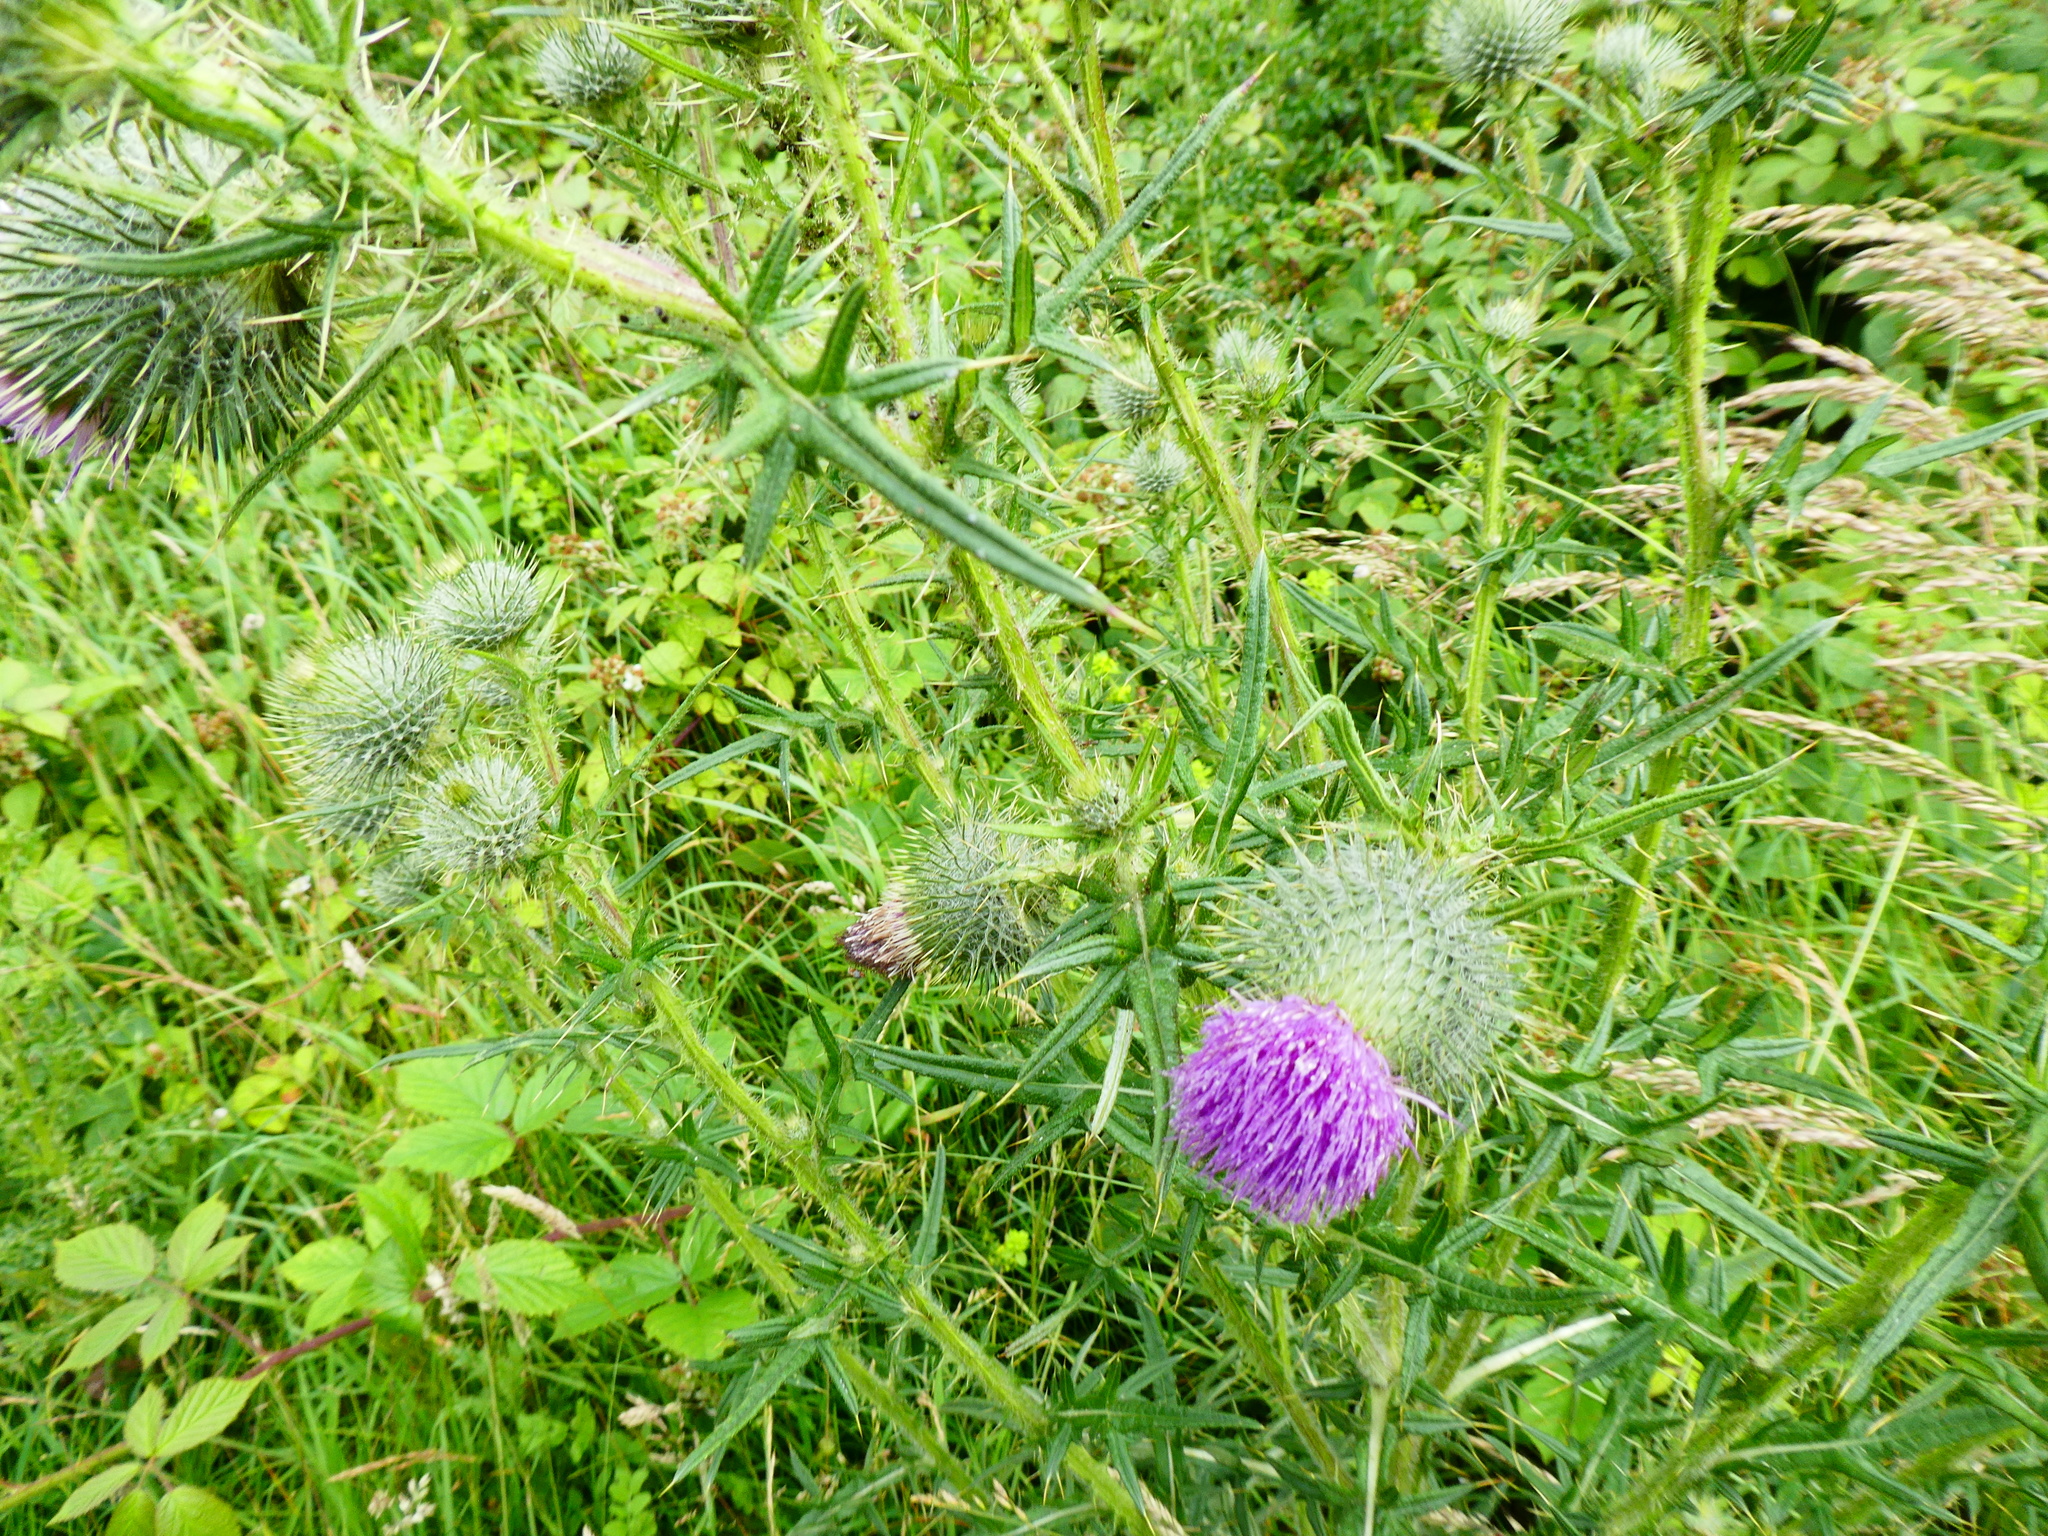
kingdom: Plantae
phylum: Tracheophyta
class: Magnoliopsida
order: Asterales
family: Asteraceae
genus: Cirsium
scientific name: Cirsium vulgare
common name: Bull thistle
